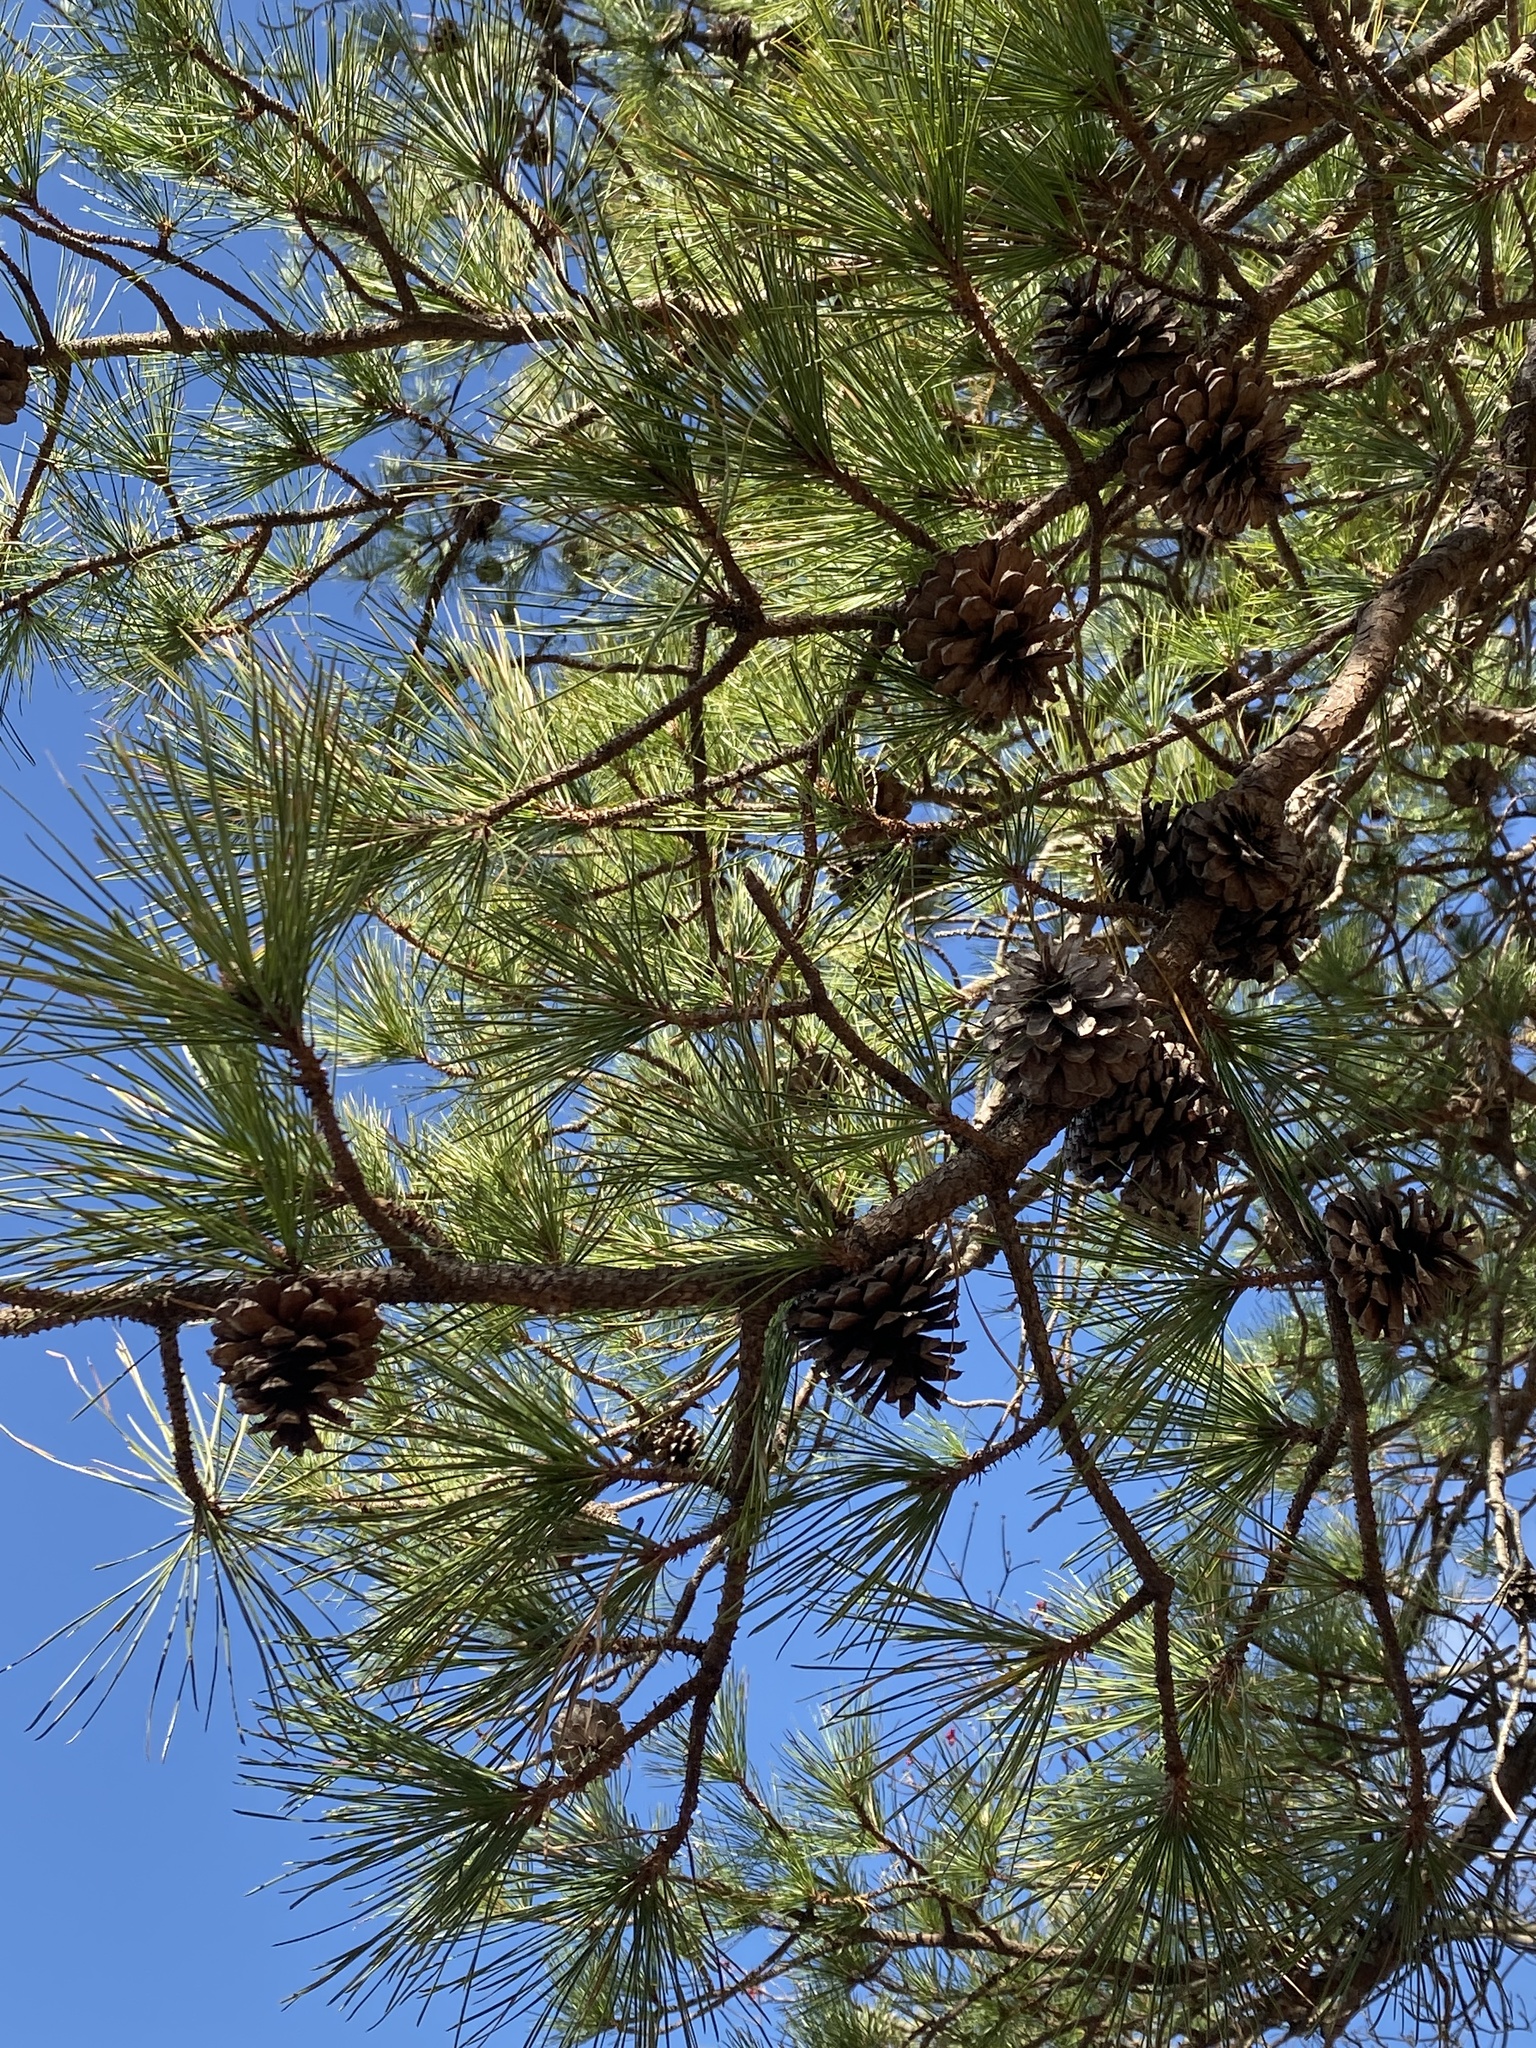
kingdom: Plantae
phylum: Tracheophyta
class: Pinopsida
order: Pinales
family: Pinaceae
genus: Pinus
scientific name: Pinus rigida
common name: Pitch pine
